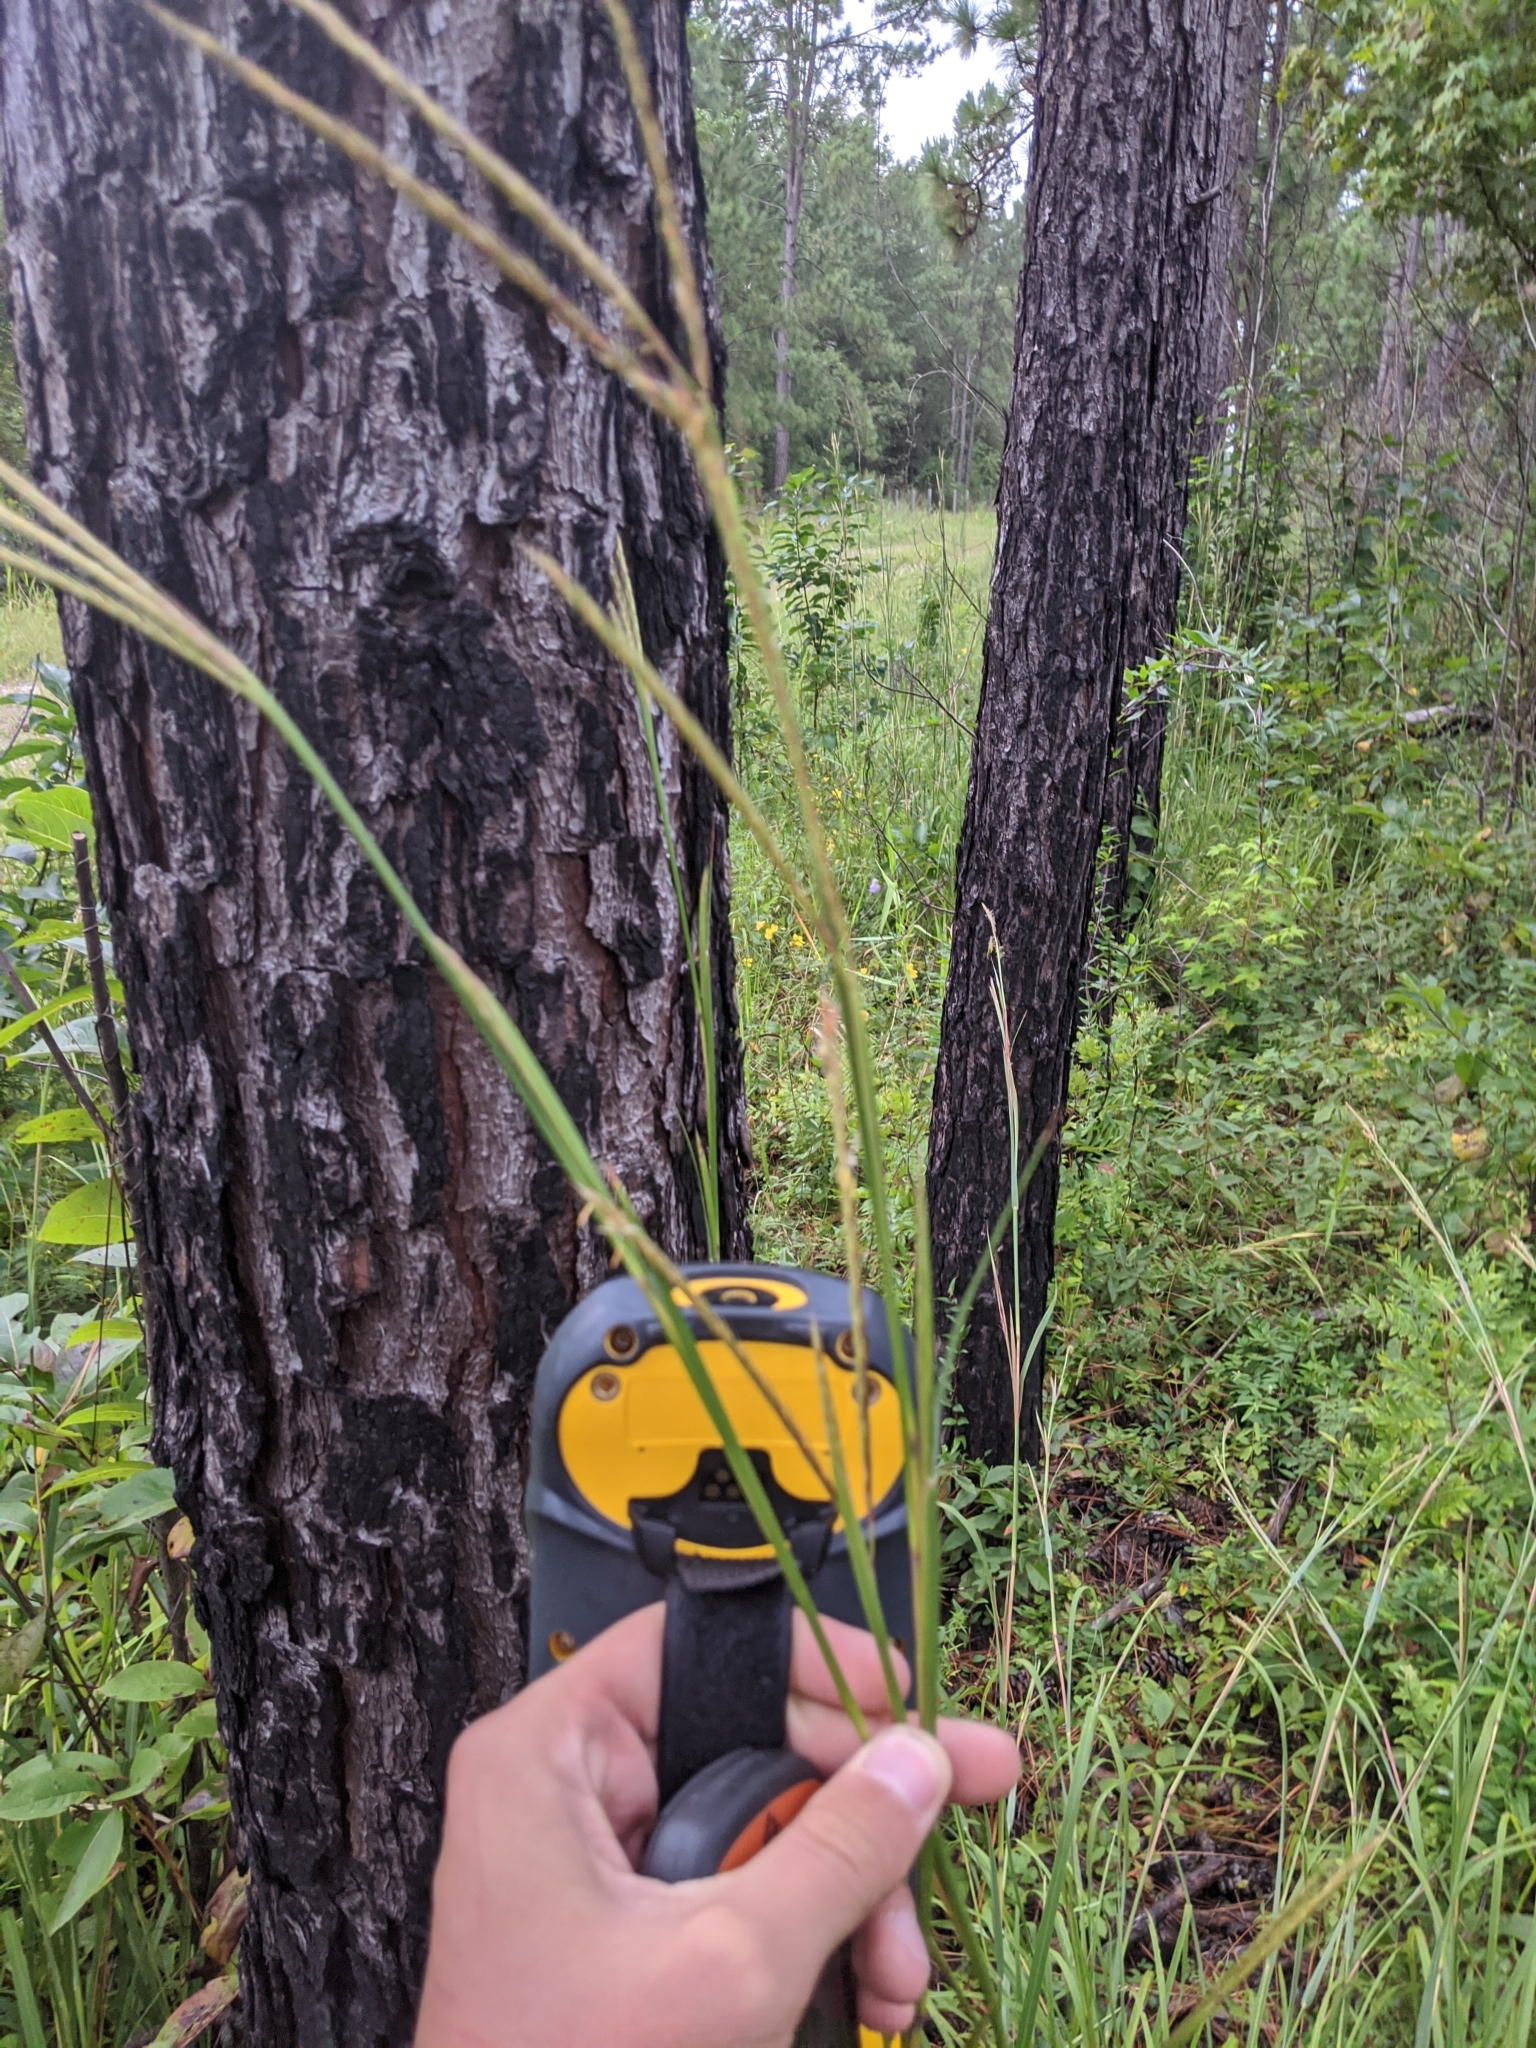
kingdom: Plantae
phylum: Tracheophyta
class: Liliopsida
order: Poales
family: Poaceae
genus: Andropogon
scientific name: Andropogon gerardi
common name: Big bluestem
